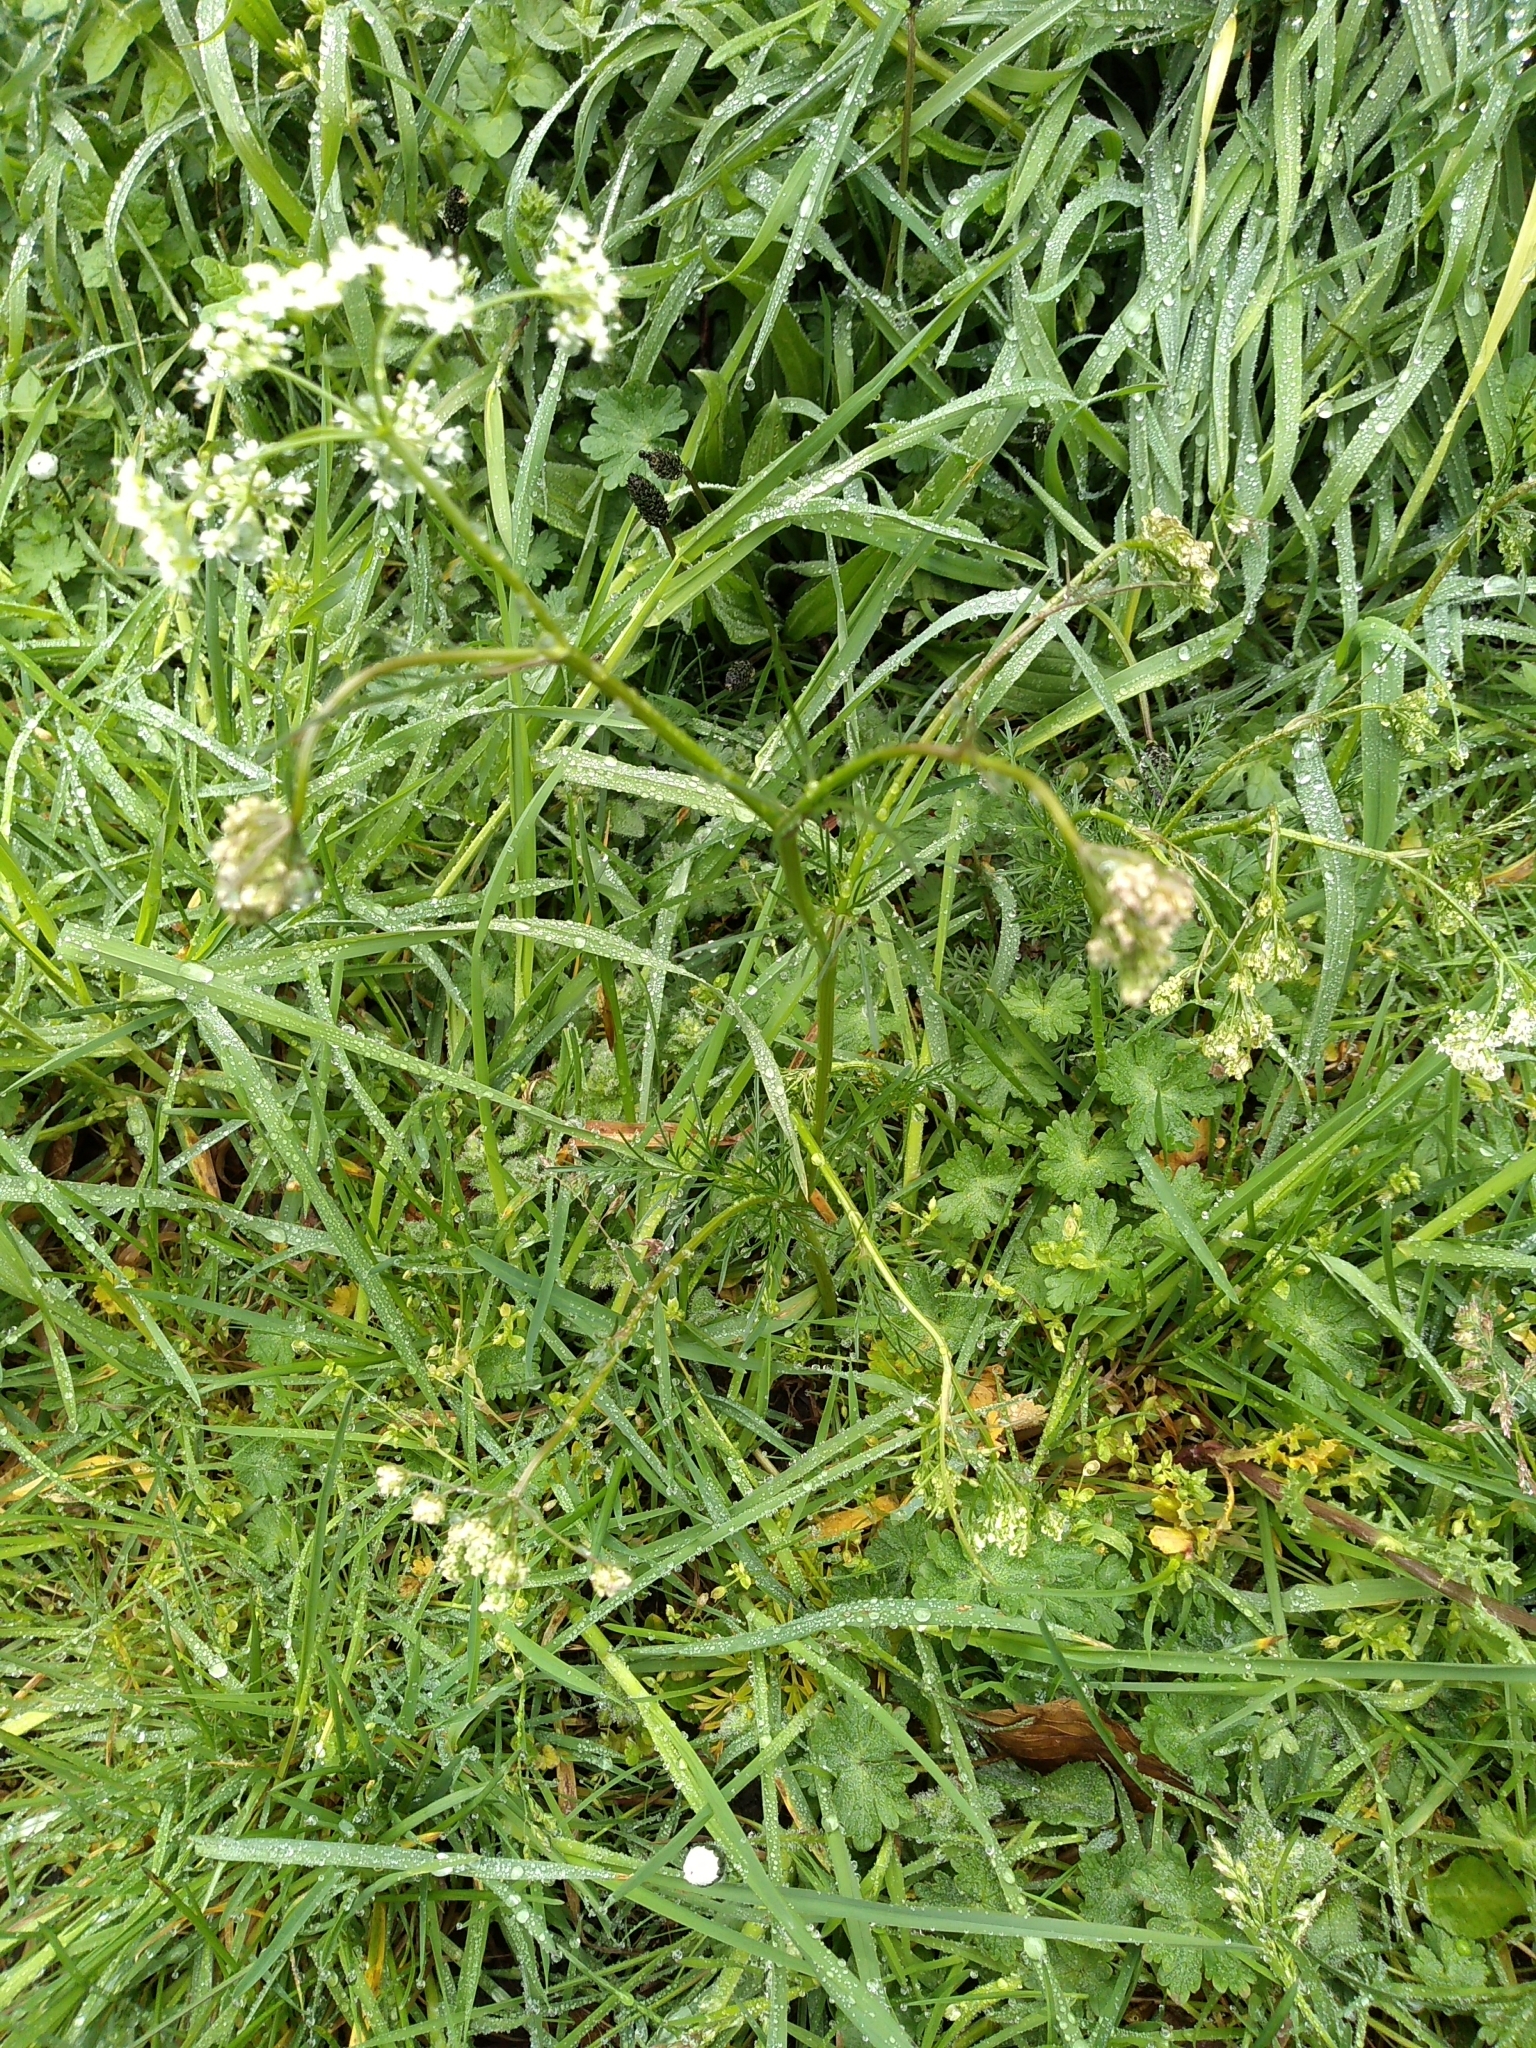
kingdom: Plantae
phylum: Tracheophyta
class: Magnoliopsida
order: Apiales
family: Apiaceae
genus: Conopodium
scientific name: Conopodium majus
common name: Pignut
